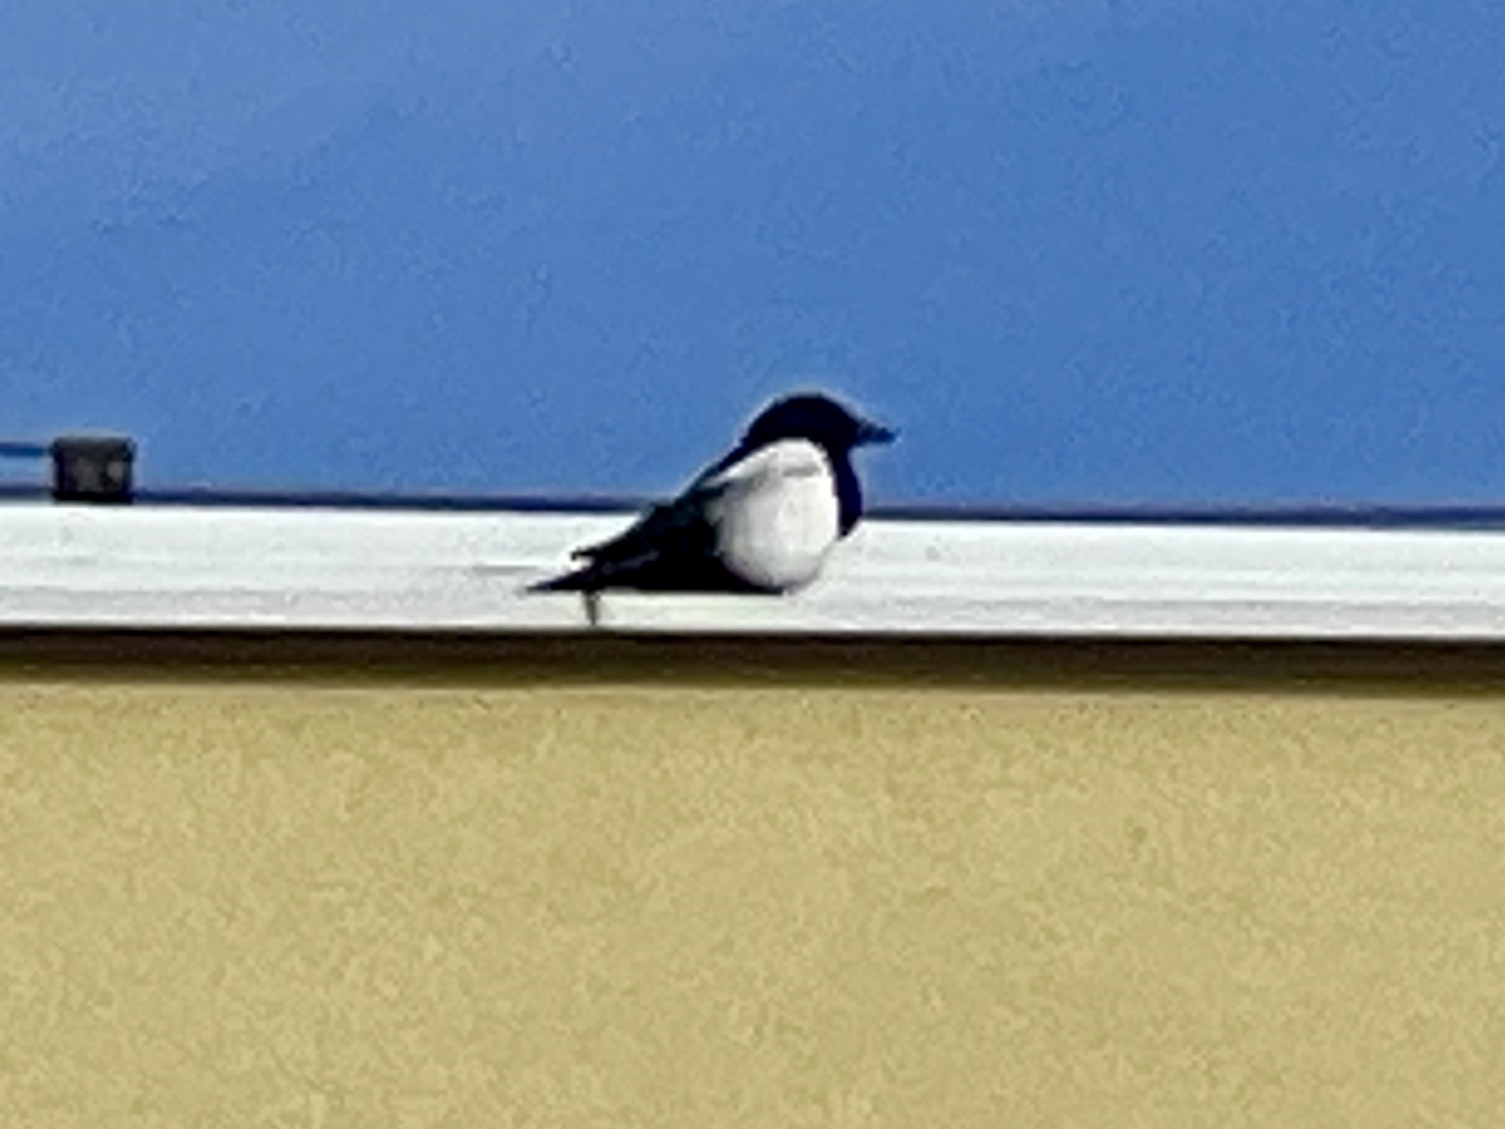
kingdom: Animalia
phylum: Chordata
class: Aves
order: Passeriformes
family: Corvidae
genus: Pica
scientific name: Pica pica
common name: Eurasian magpie
